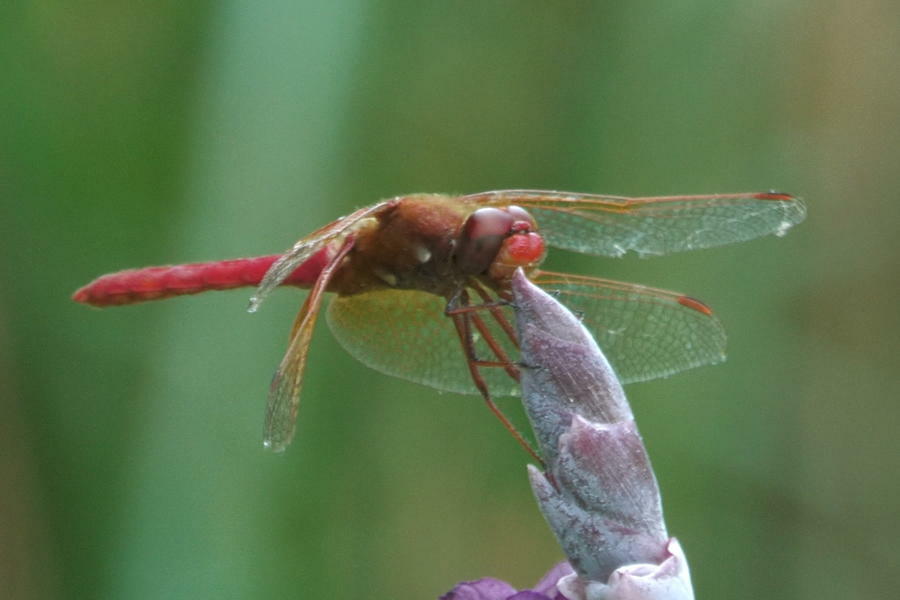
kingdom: Animalia
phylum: Arthropoda
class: Insecta
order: Odonata
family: Libellulidae
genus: Sympetrum
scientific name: Sympetrum illotum
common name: Cardinal meadowhawk
